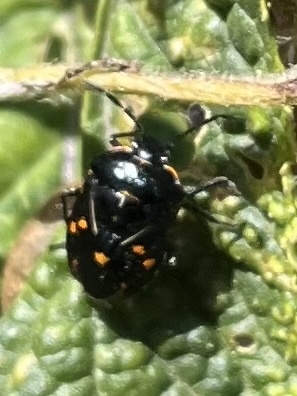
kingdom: Animalia
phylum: Arthropoda
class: Insecta
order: Hemiptera
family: Pentatomidae
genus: Murgantia
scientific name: Murgantia histrionica
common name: Harlequin bug
